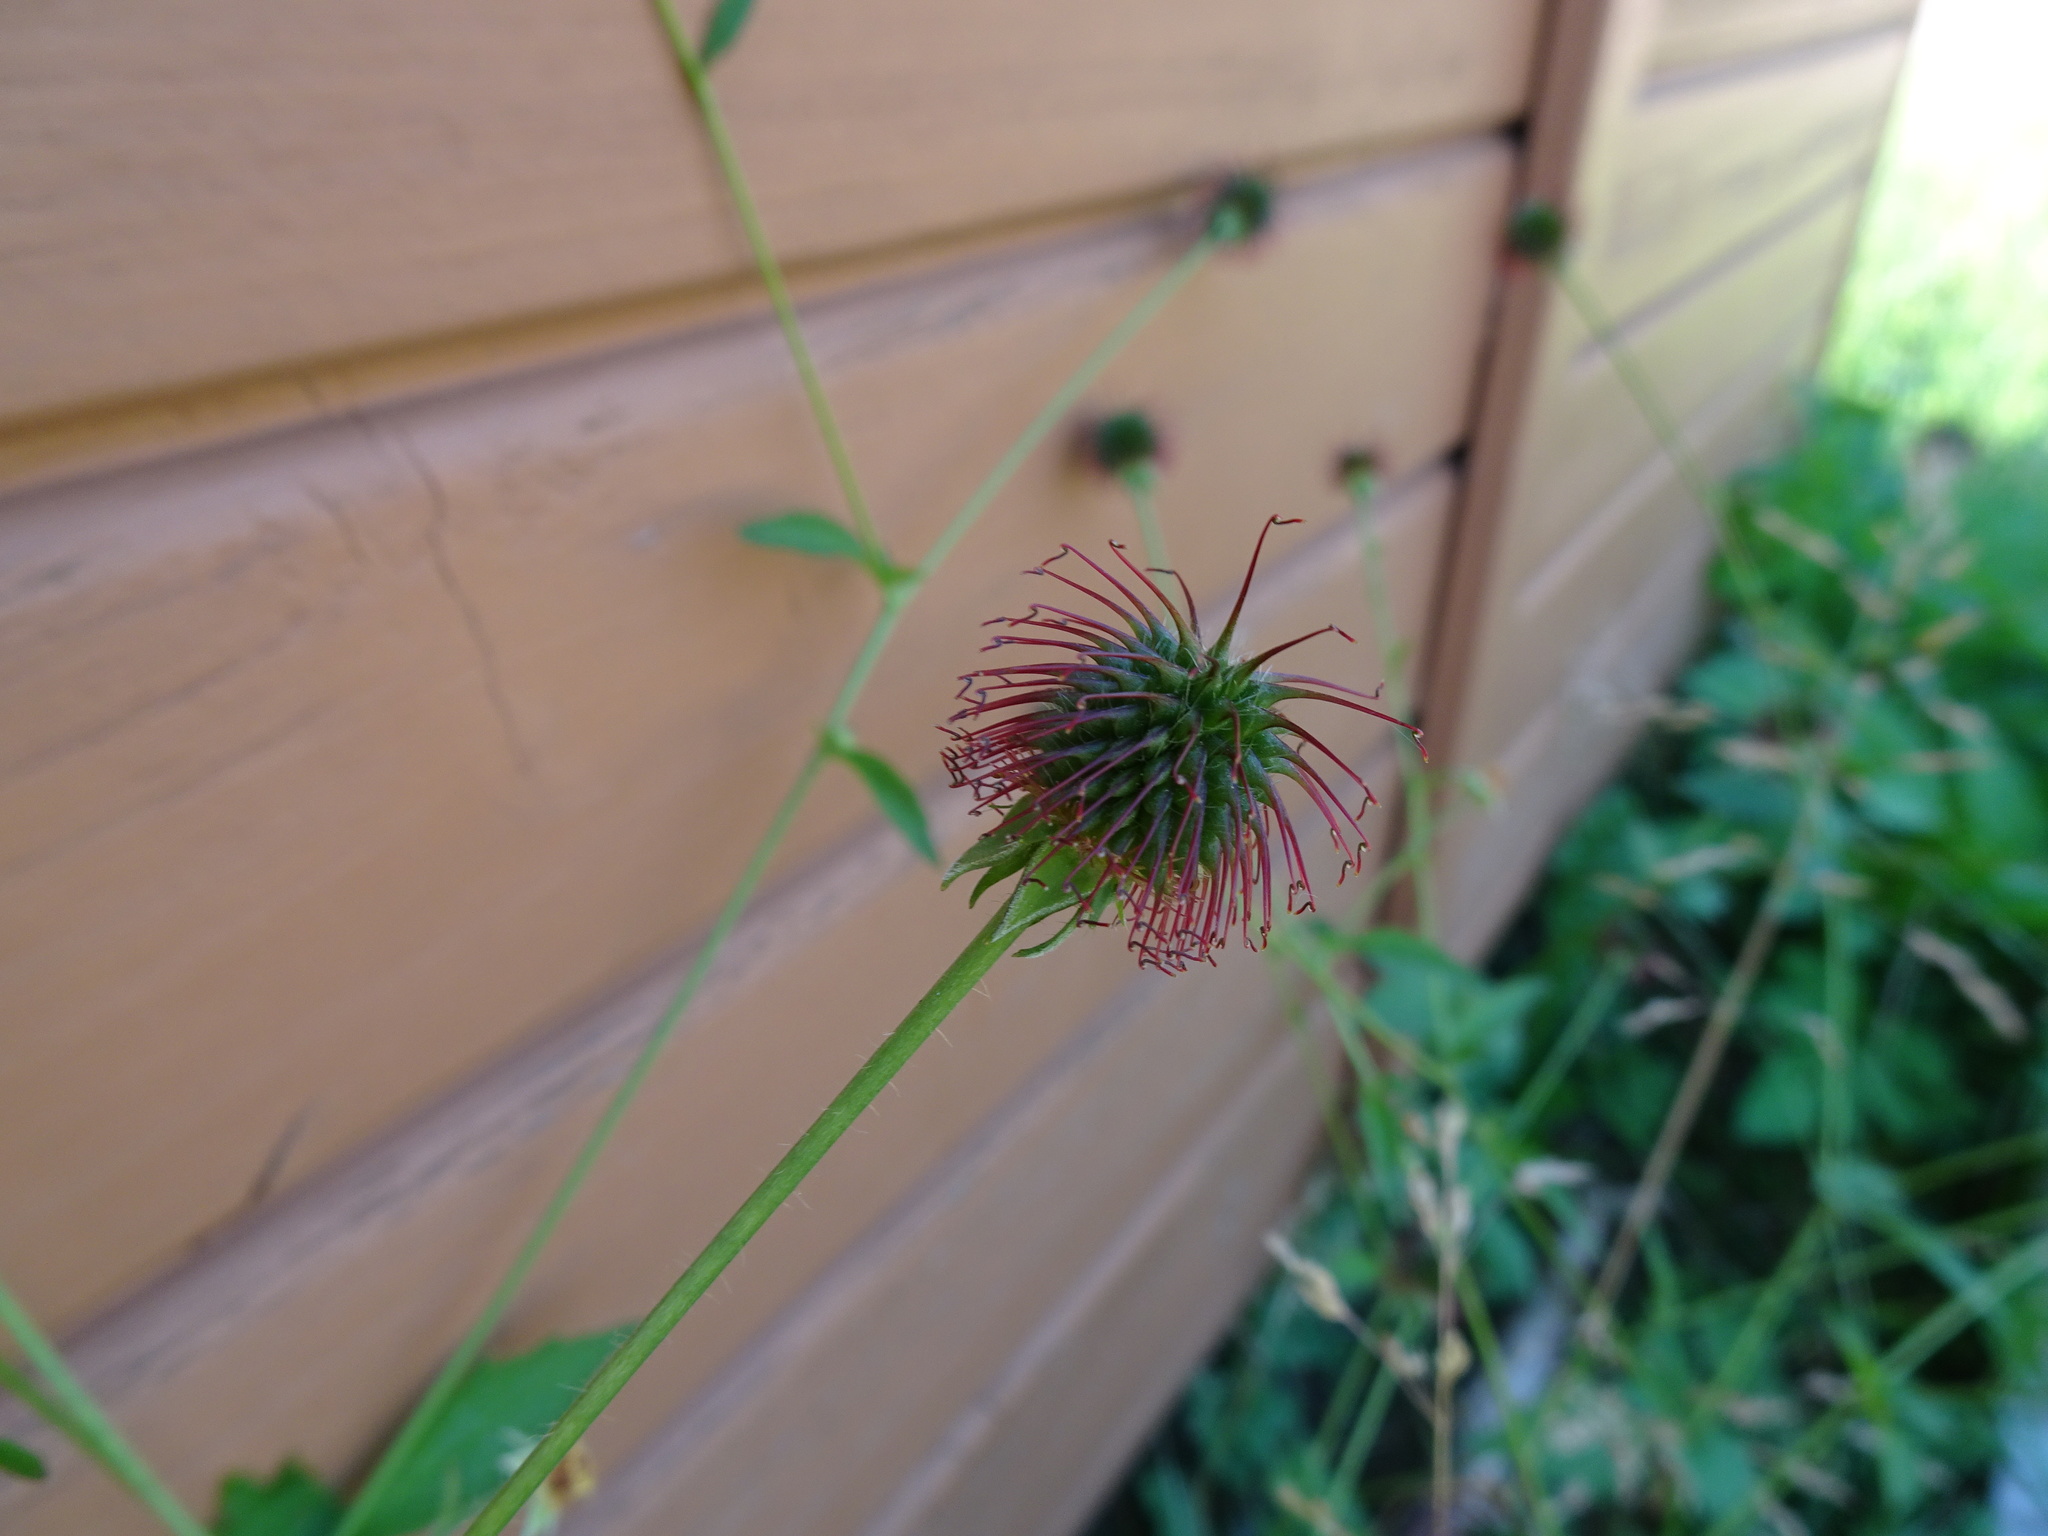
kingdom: Plantae
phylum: Tracheophyta
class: Magnoliopsida
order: Rosales
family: Rosaceae
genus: Geum
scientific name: Geum urbanum
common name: Wood avens
